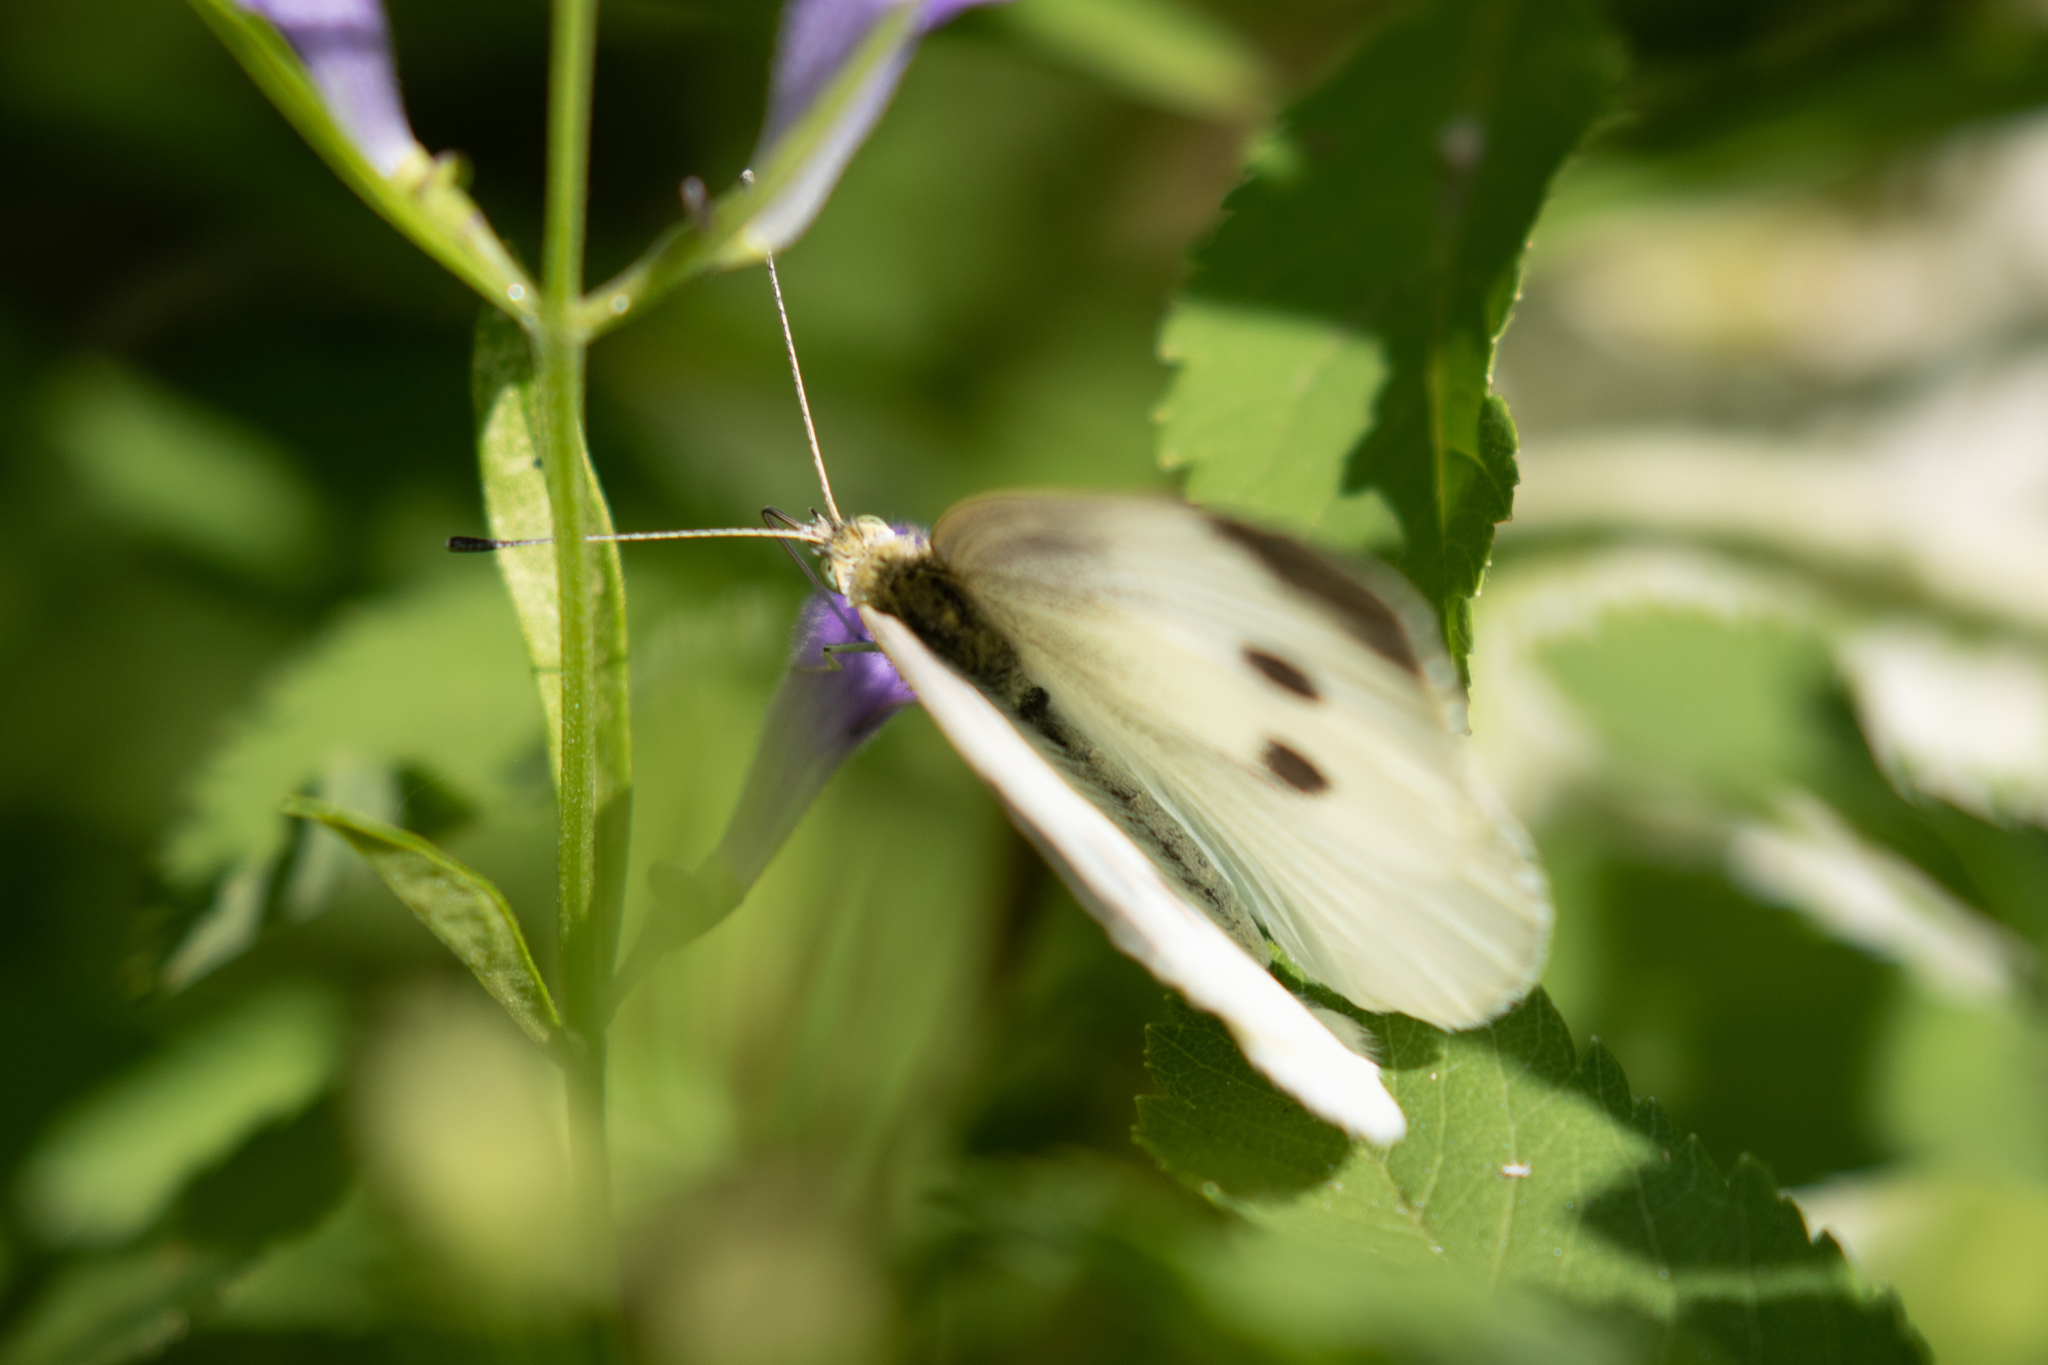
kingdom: Animalia
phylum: Arthropoda
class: Insecta
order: Lepidoptera
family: Pieridae
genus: Pieris
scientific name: Pieris rapae
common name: Small white
